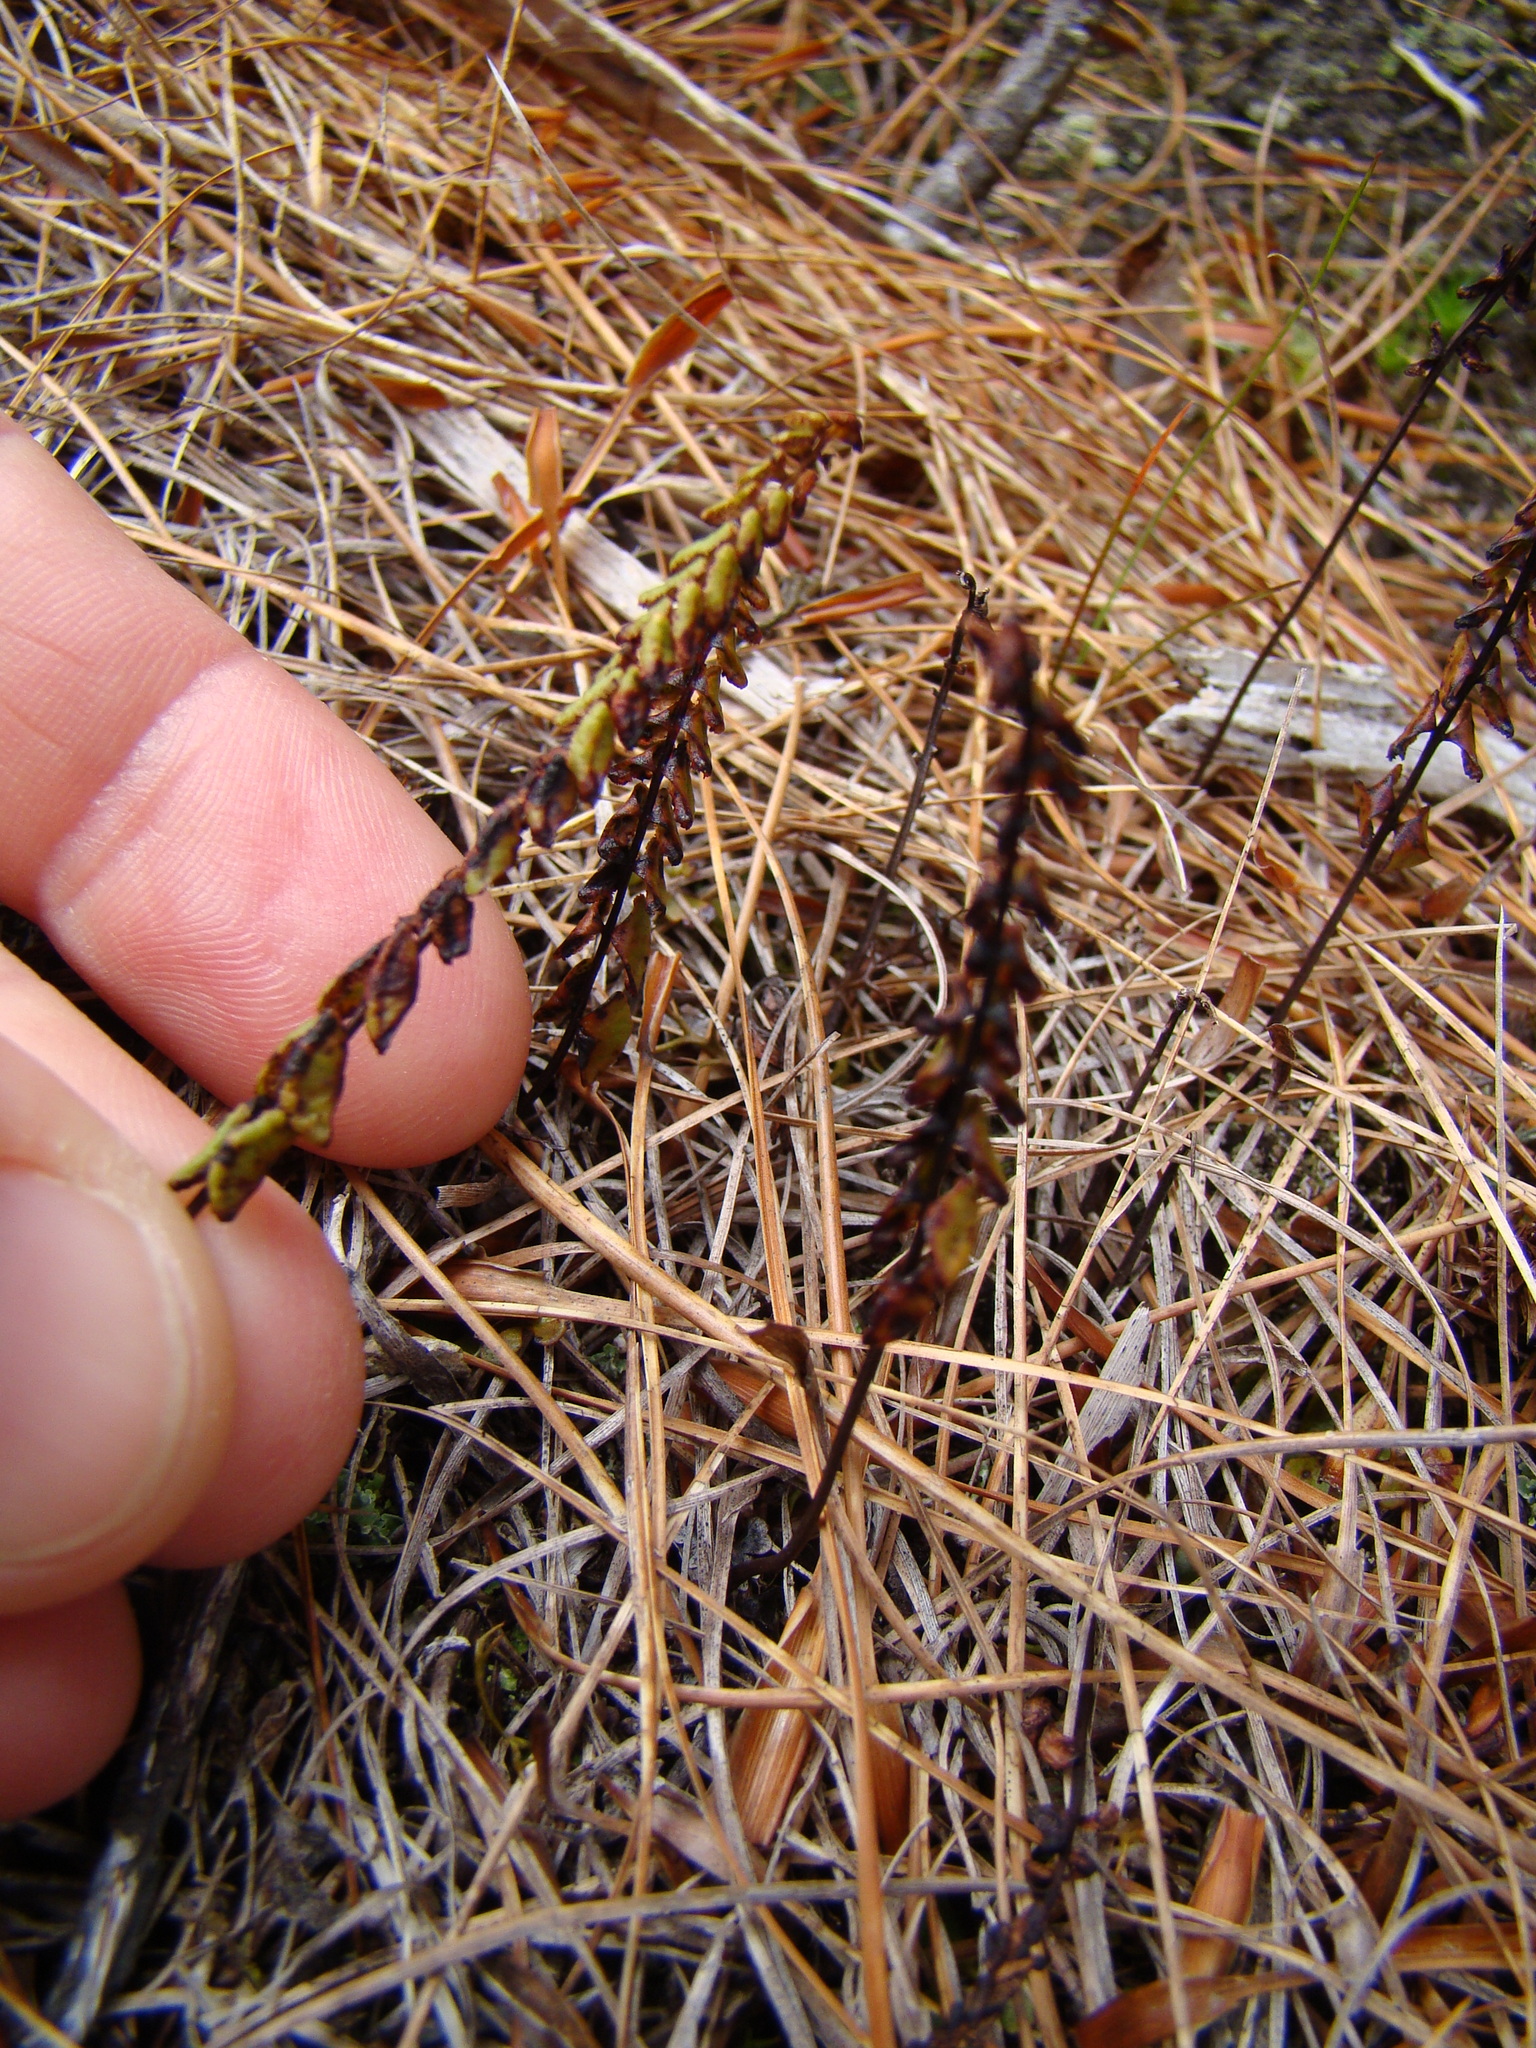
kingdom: Plantae
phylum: Tracheophyta
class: Polypodiopsida
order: Polypodiales
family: Lindsaeaceae
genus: Lindsaea
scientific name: Lindsaea linearis
